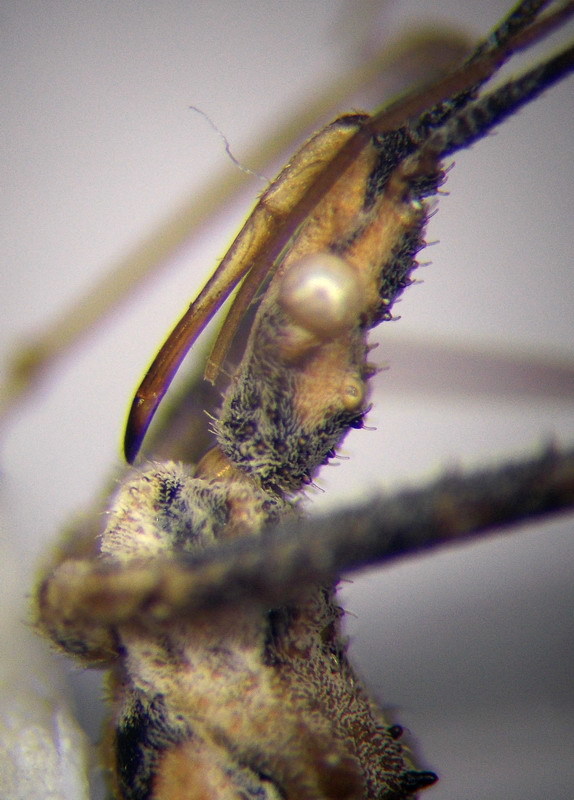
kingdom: Animalia
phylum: Arthropoda
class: Insecta
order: Hemiptera
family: Reduviidae
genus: Vachiria
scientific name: Vachiria deserta
